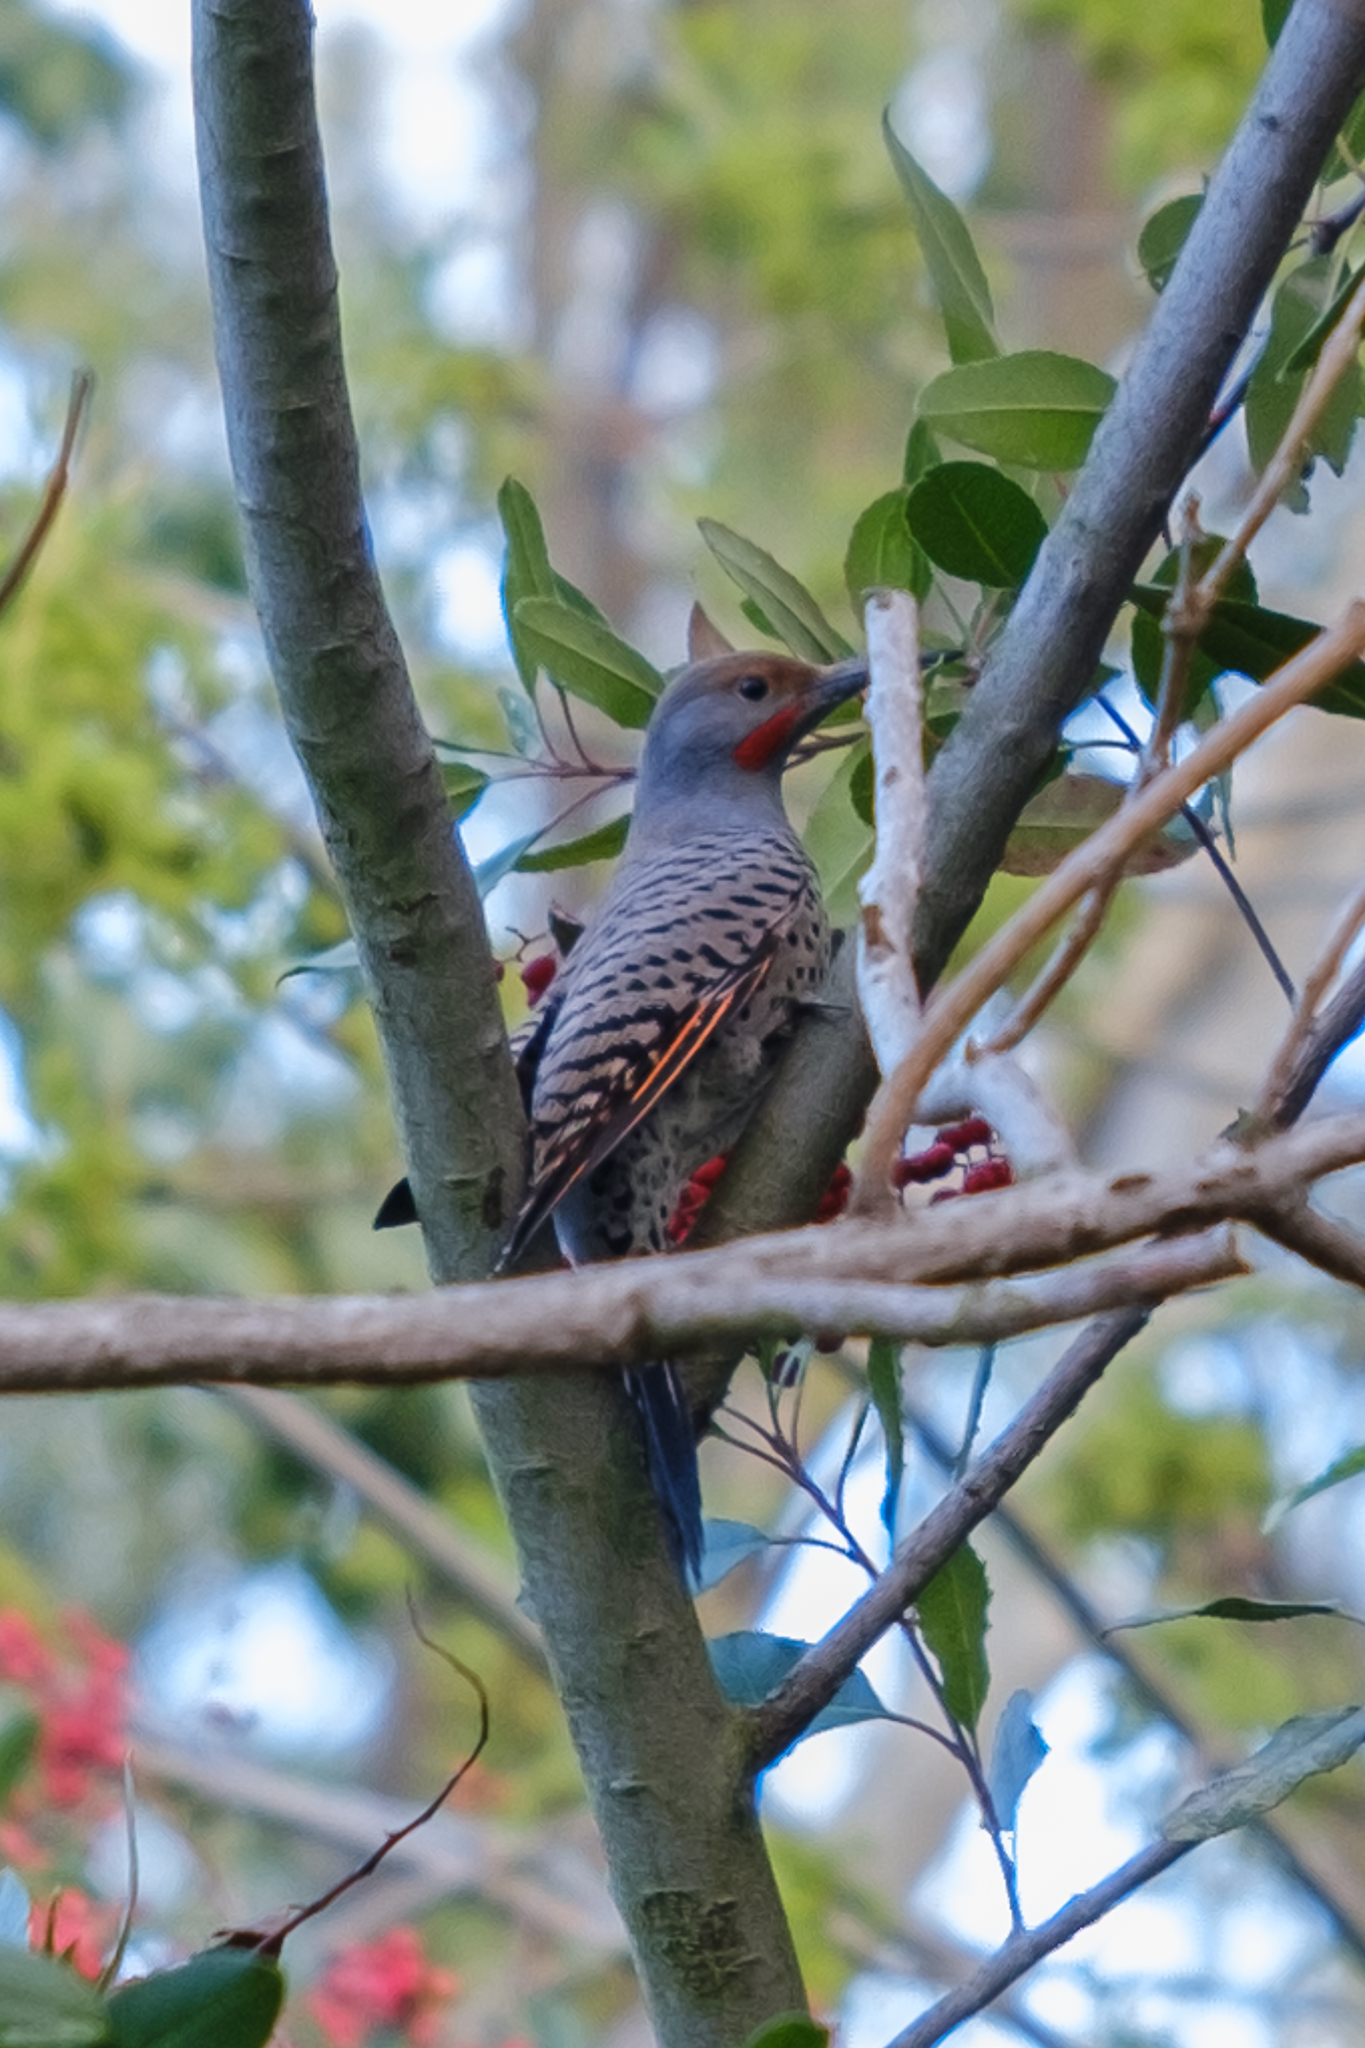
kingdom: Animalia
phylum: Chordata
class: Aves
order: Piciformes
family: Picidae
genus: Colaptes
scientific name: Colaptes auratus
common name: Northern flicker
